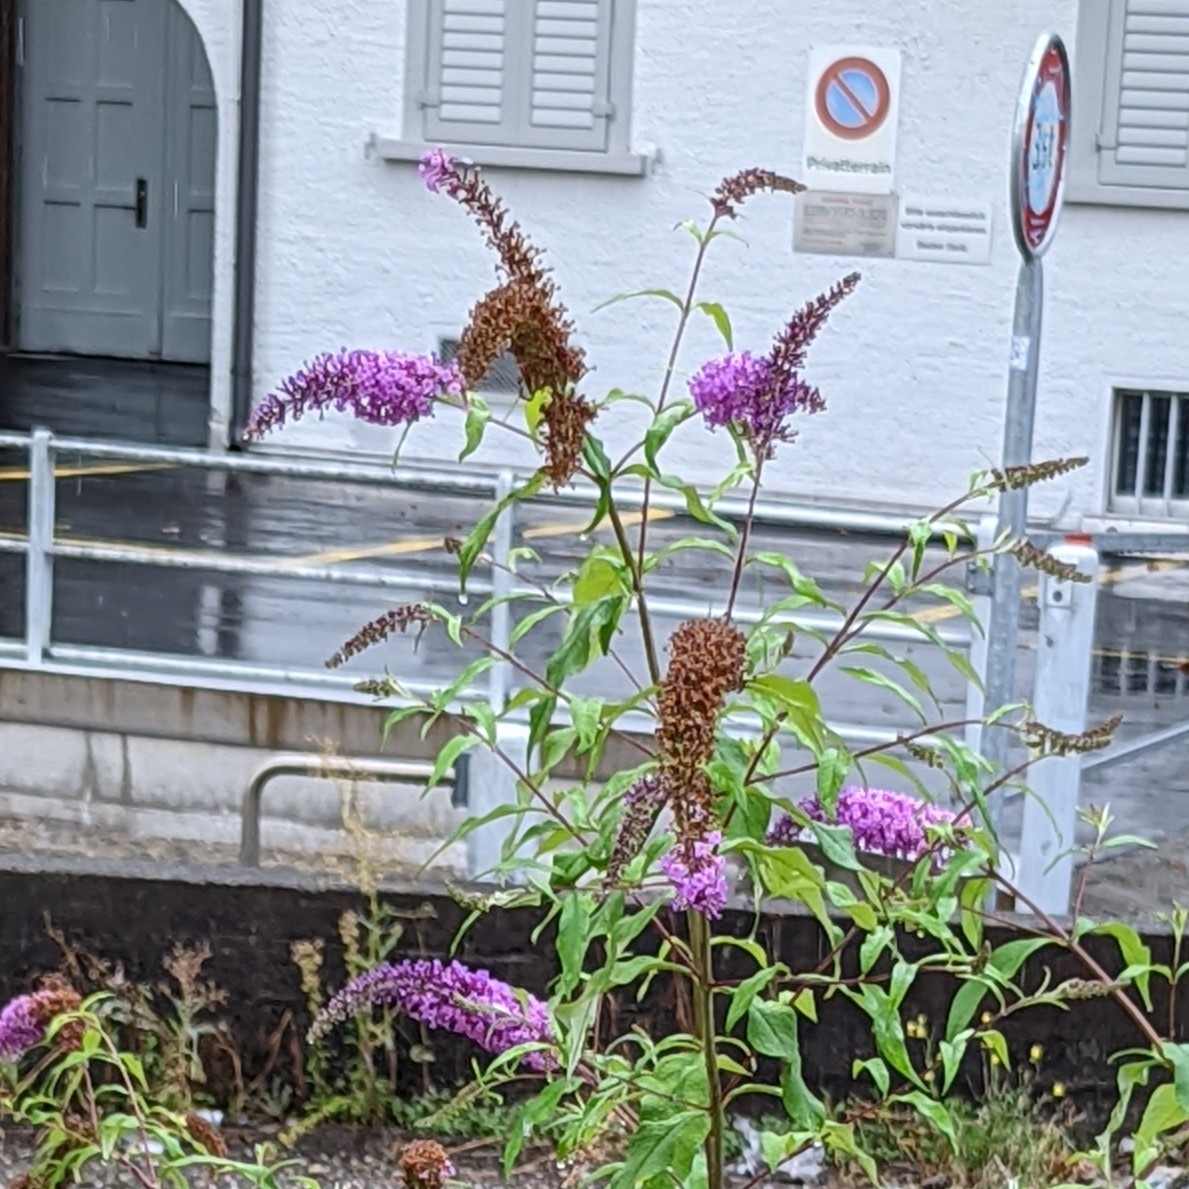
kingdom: Plantae
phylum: Tracheophyta
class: Magnoliopsida
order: Lamiales
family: Scrophulariaceae
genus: Buddleja
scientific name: Buddleja davidii
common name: Butterfly-bush
